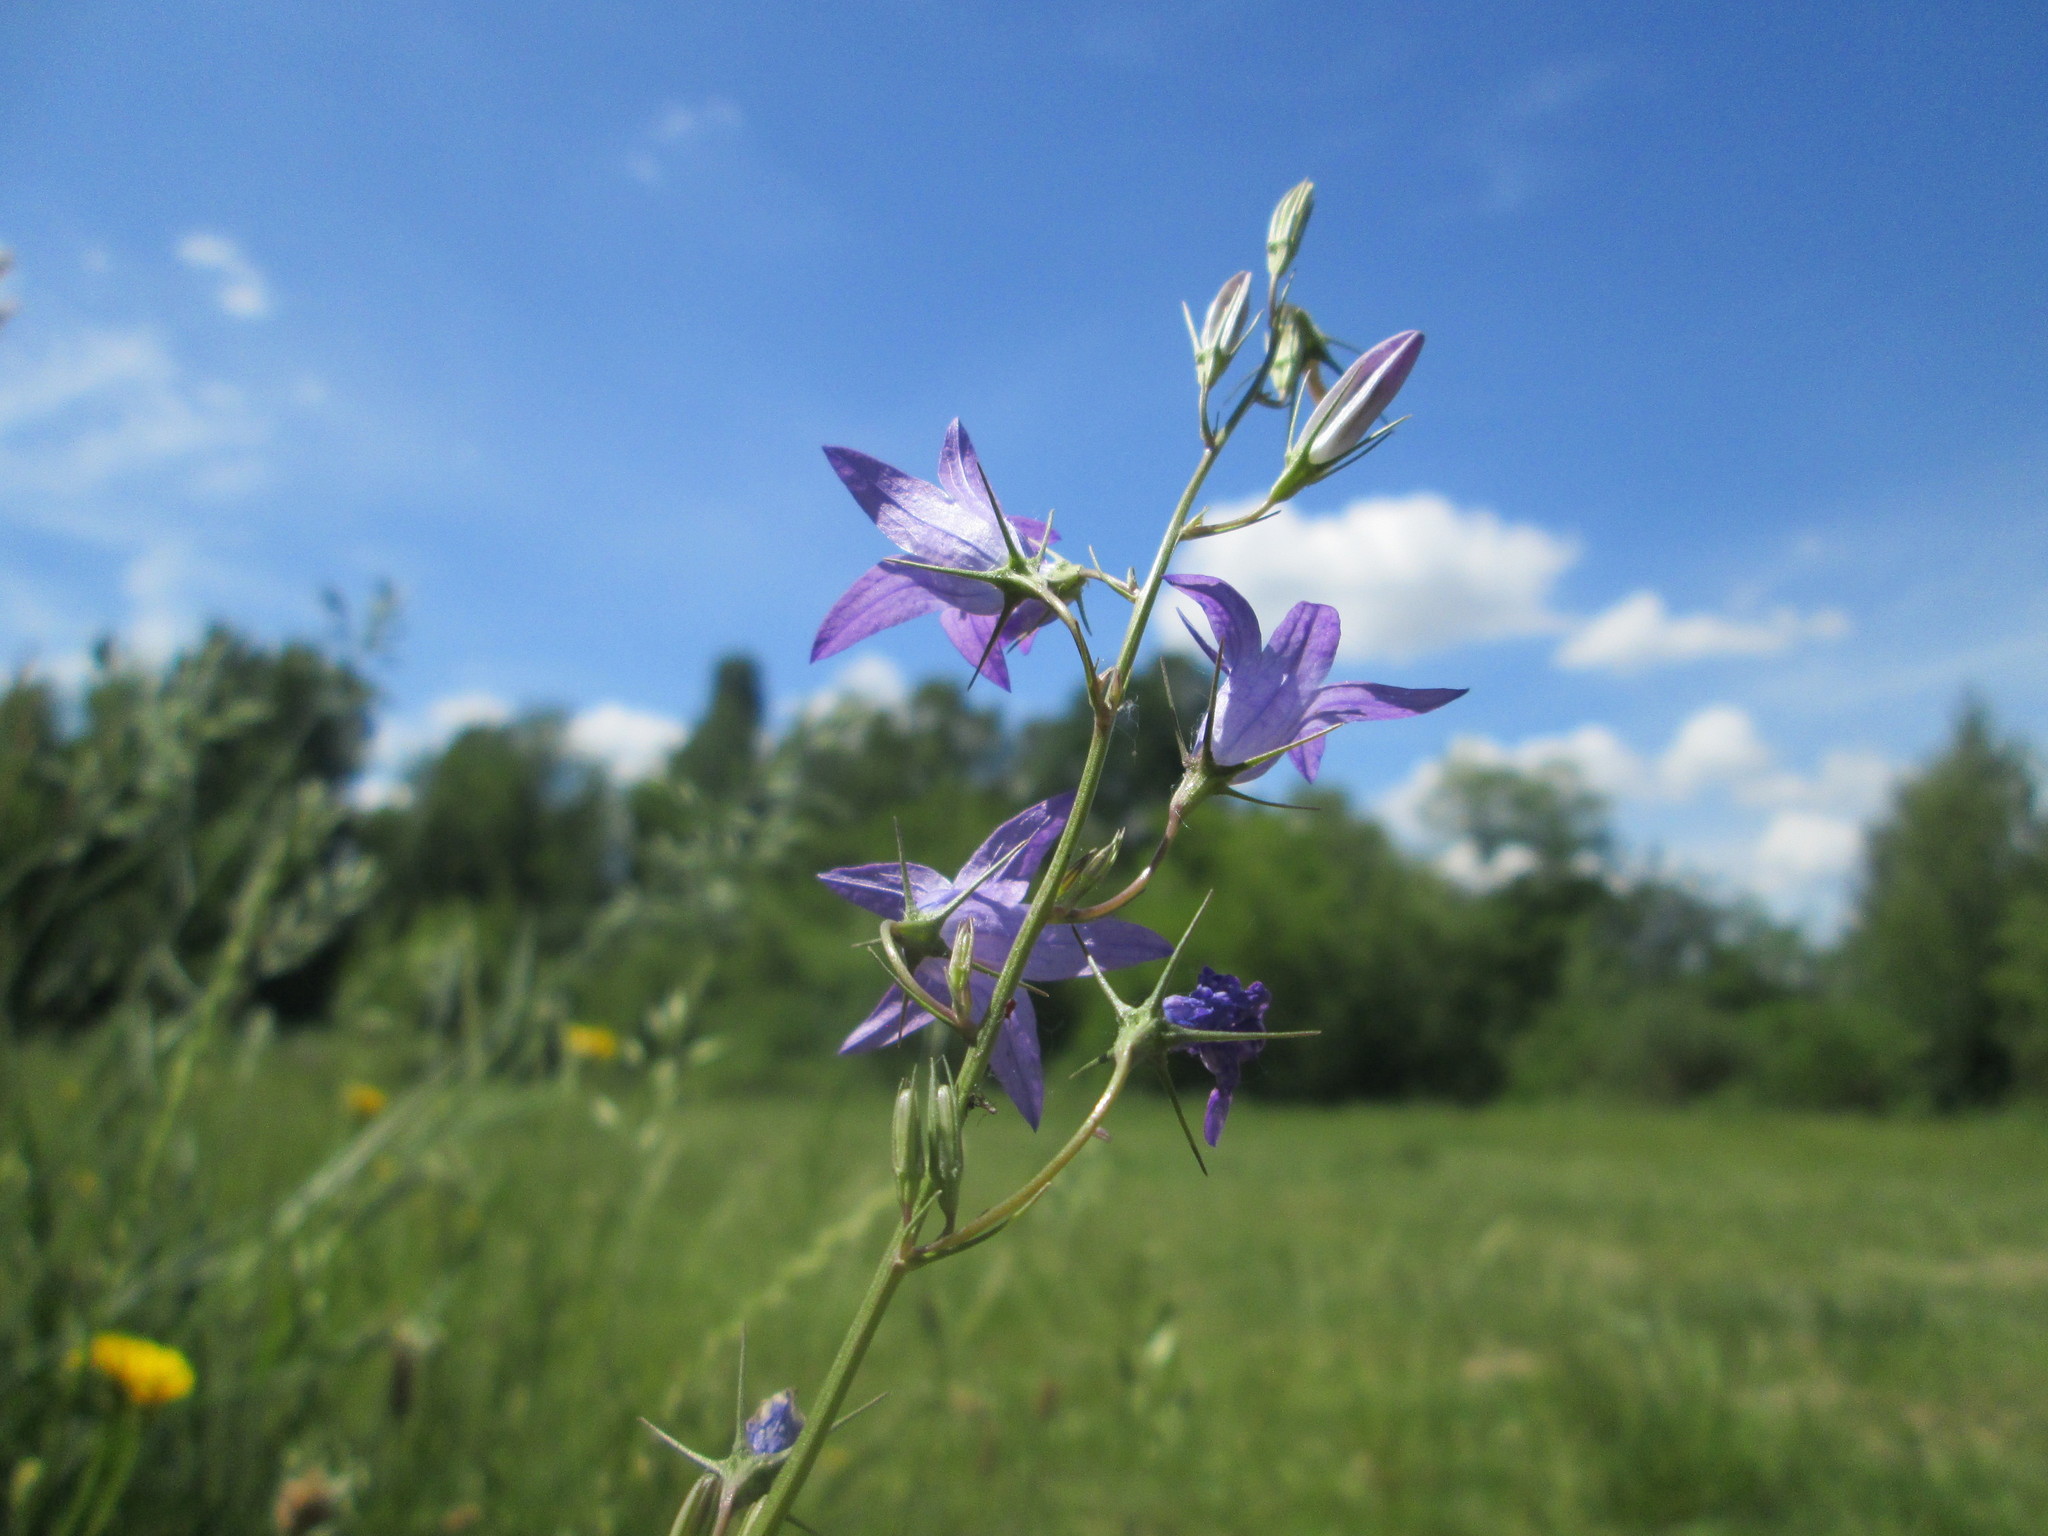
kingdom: Plantae
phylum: Tracheophyta
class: Magnoliopsida
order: Asterales
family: Campanulaceae
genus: Campanula
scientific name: Campanula rapunculus
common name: Rampion bellflower
